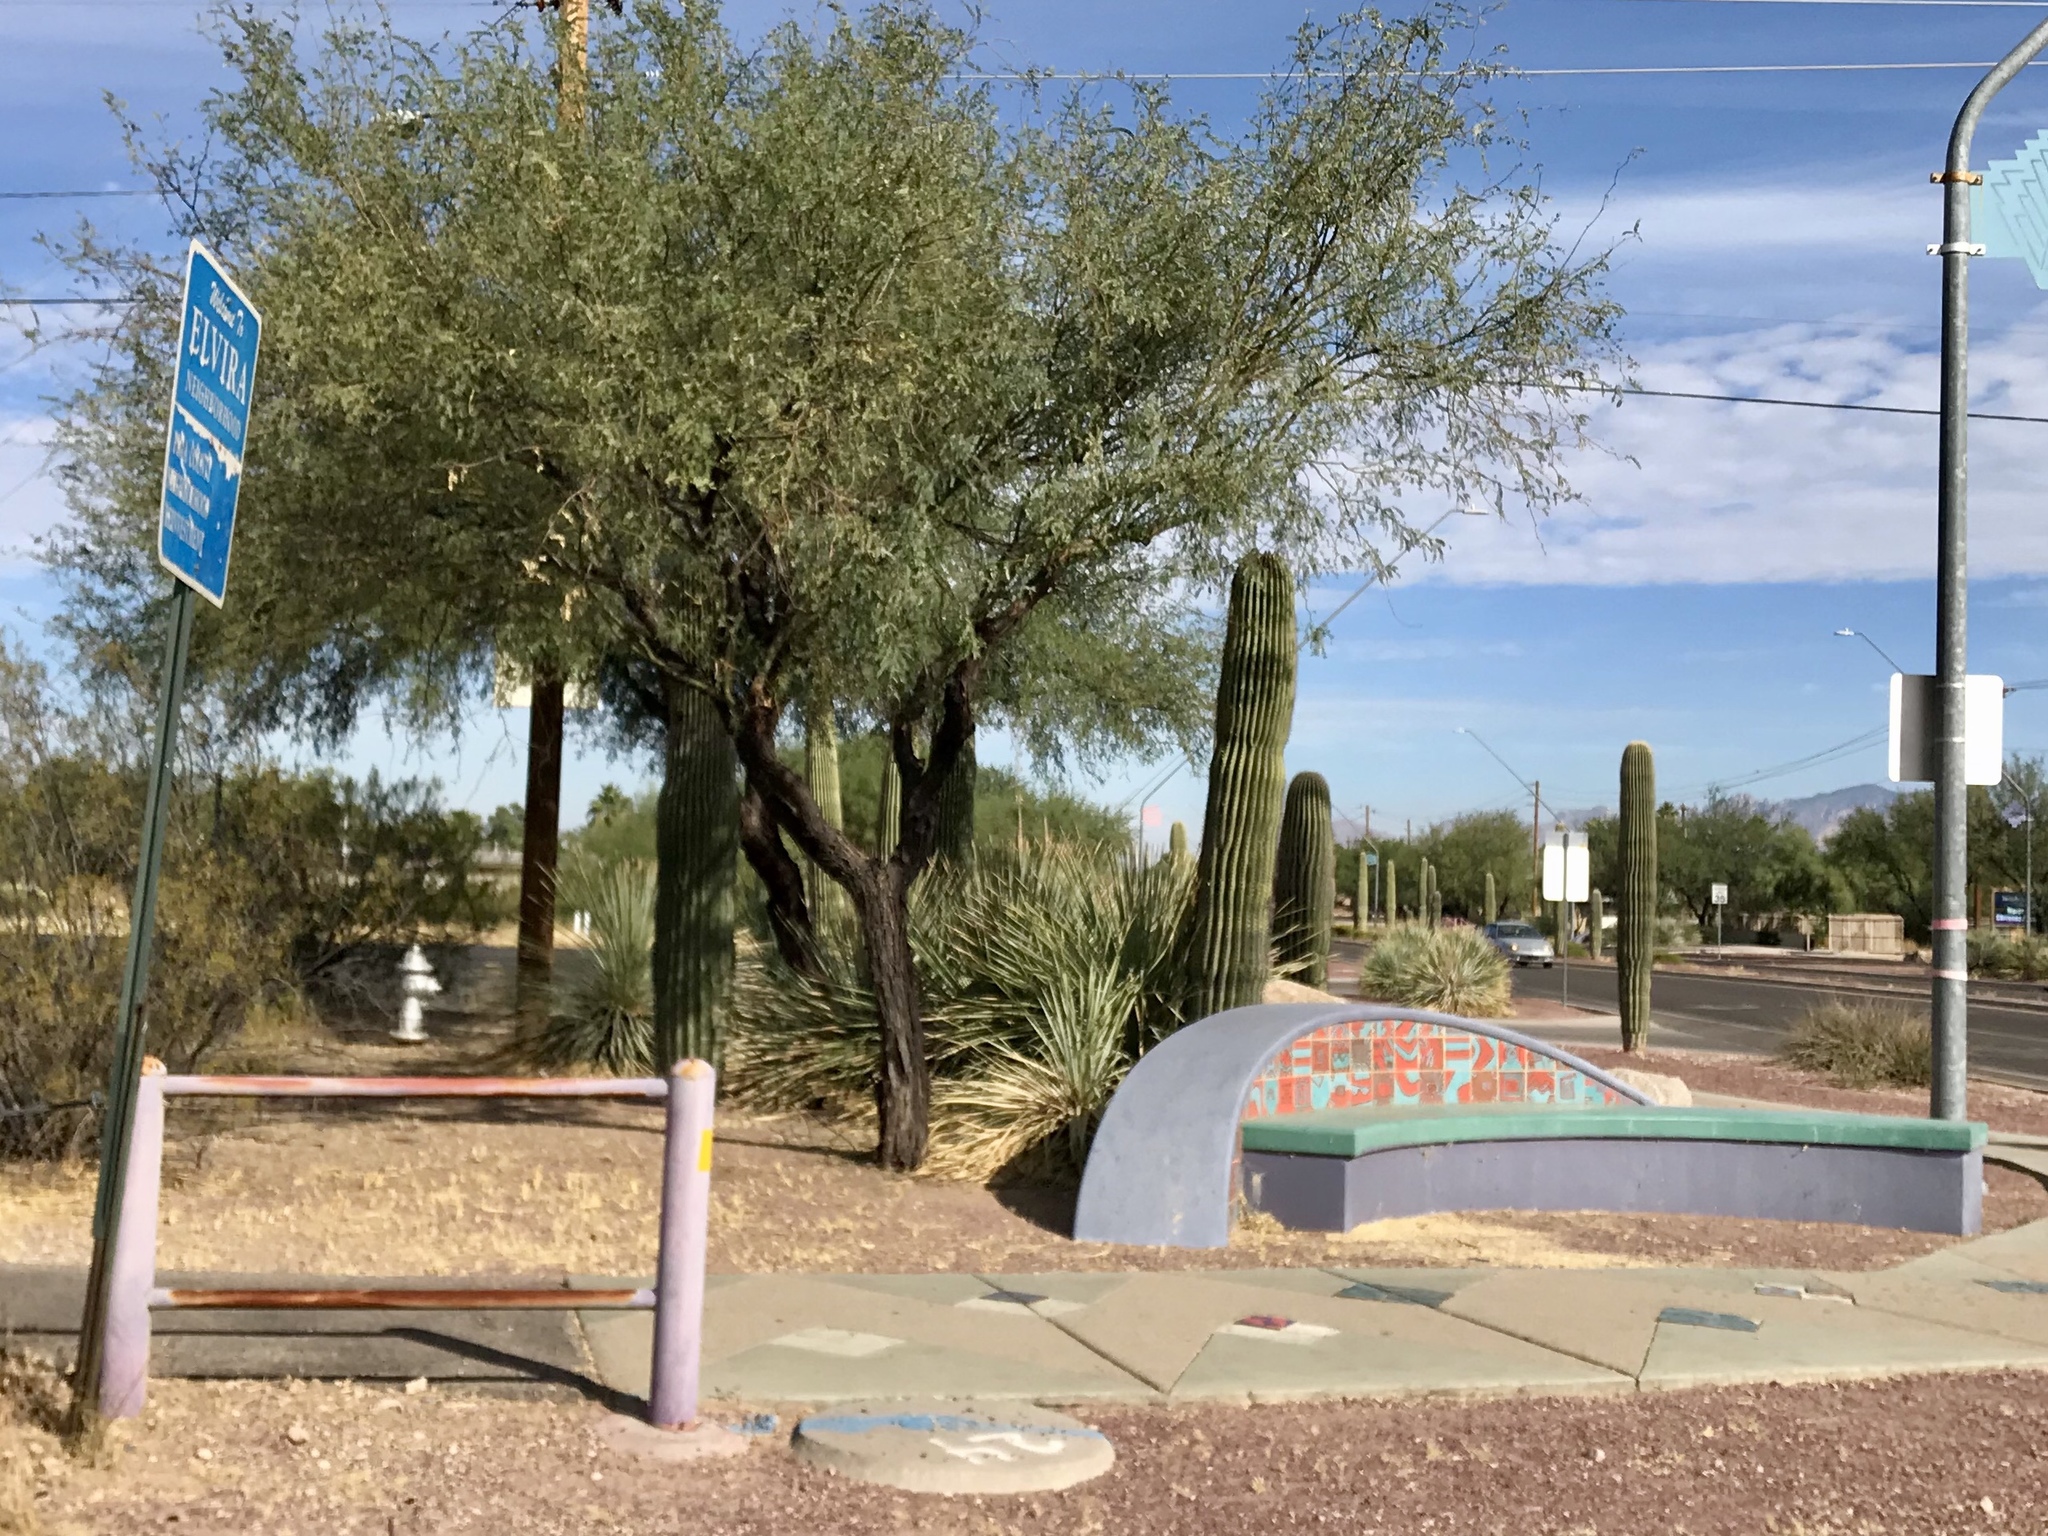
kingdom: Plantae
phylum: Tracheophyta
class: Magnoliopsida
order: Caryophyllales
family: Cactaceae
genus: Carnegiea
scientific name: Carnegiea gigantea
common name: Saguaro
